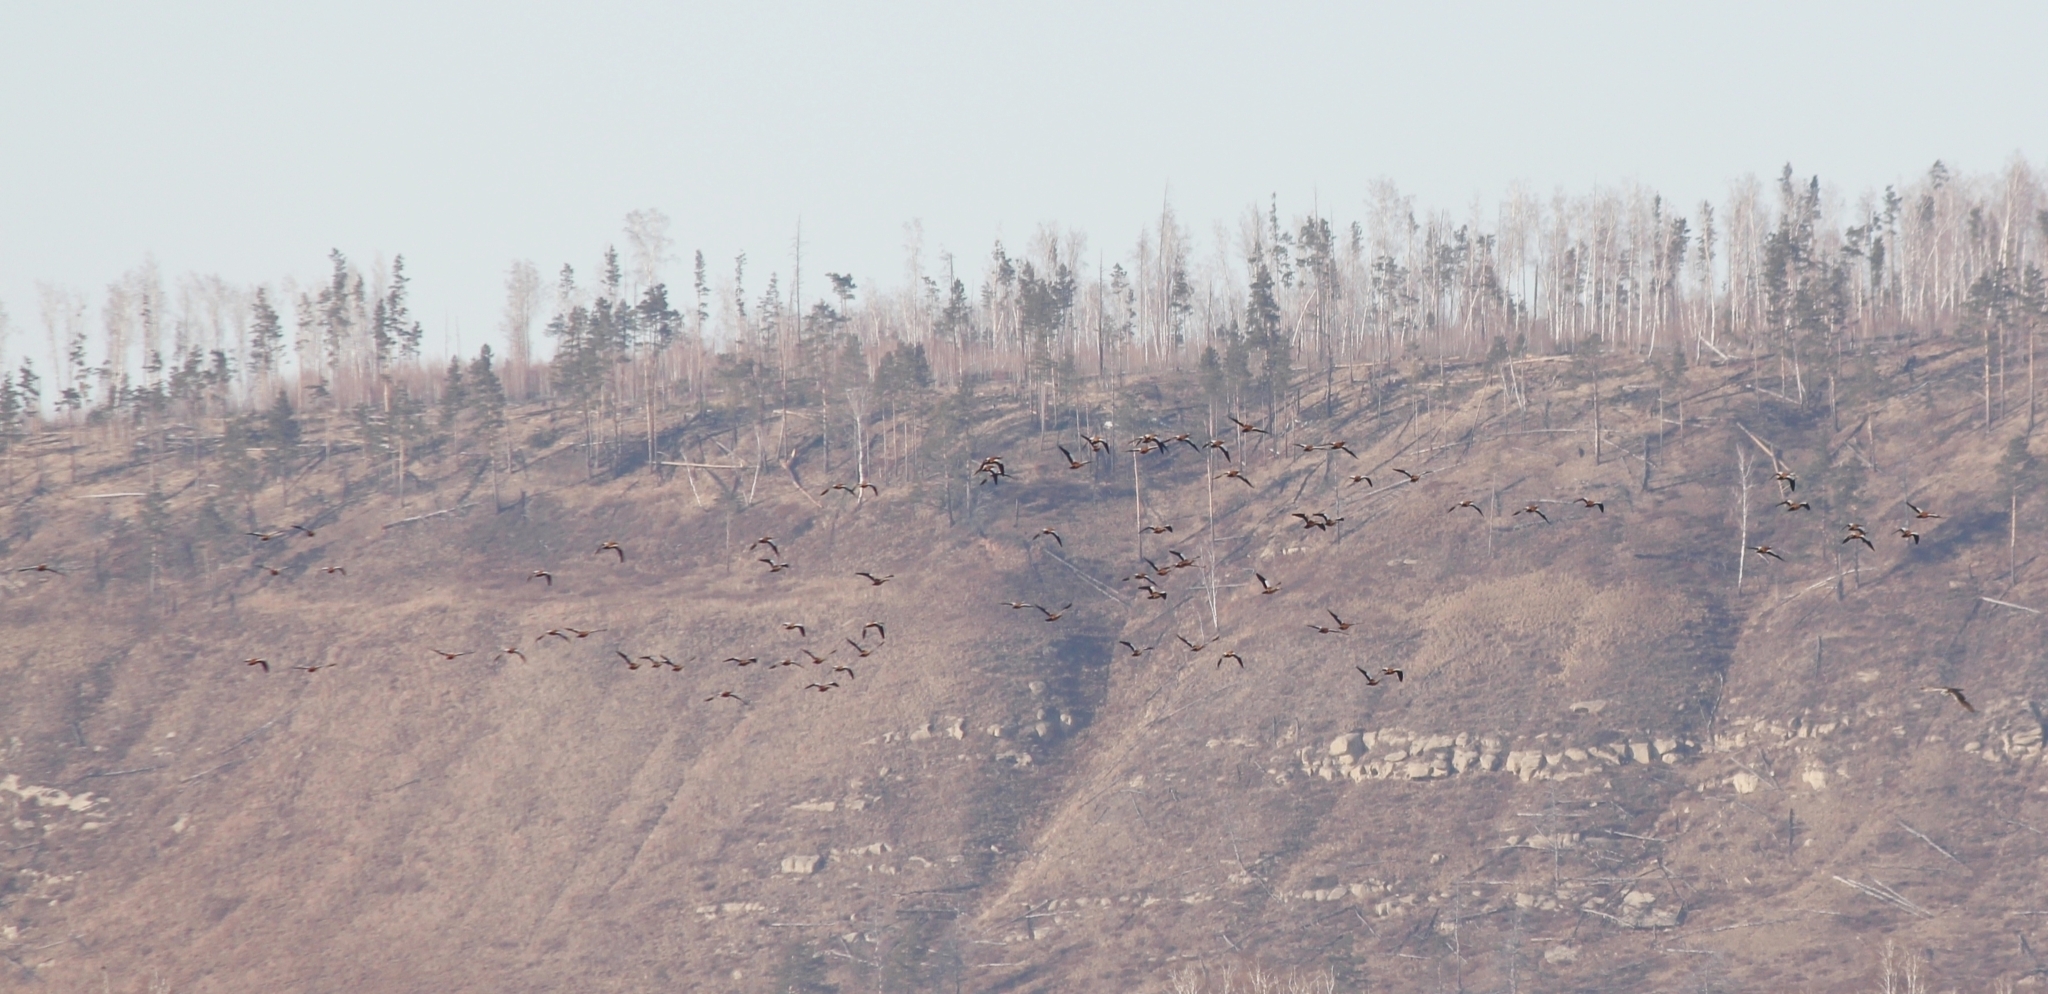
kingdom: Animalia
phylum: Chordata
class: Aves
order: Anseriformes
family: Anatidae
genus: Tadorna
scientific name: Tadorna ferruginea
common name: Ruddy shelduck
